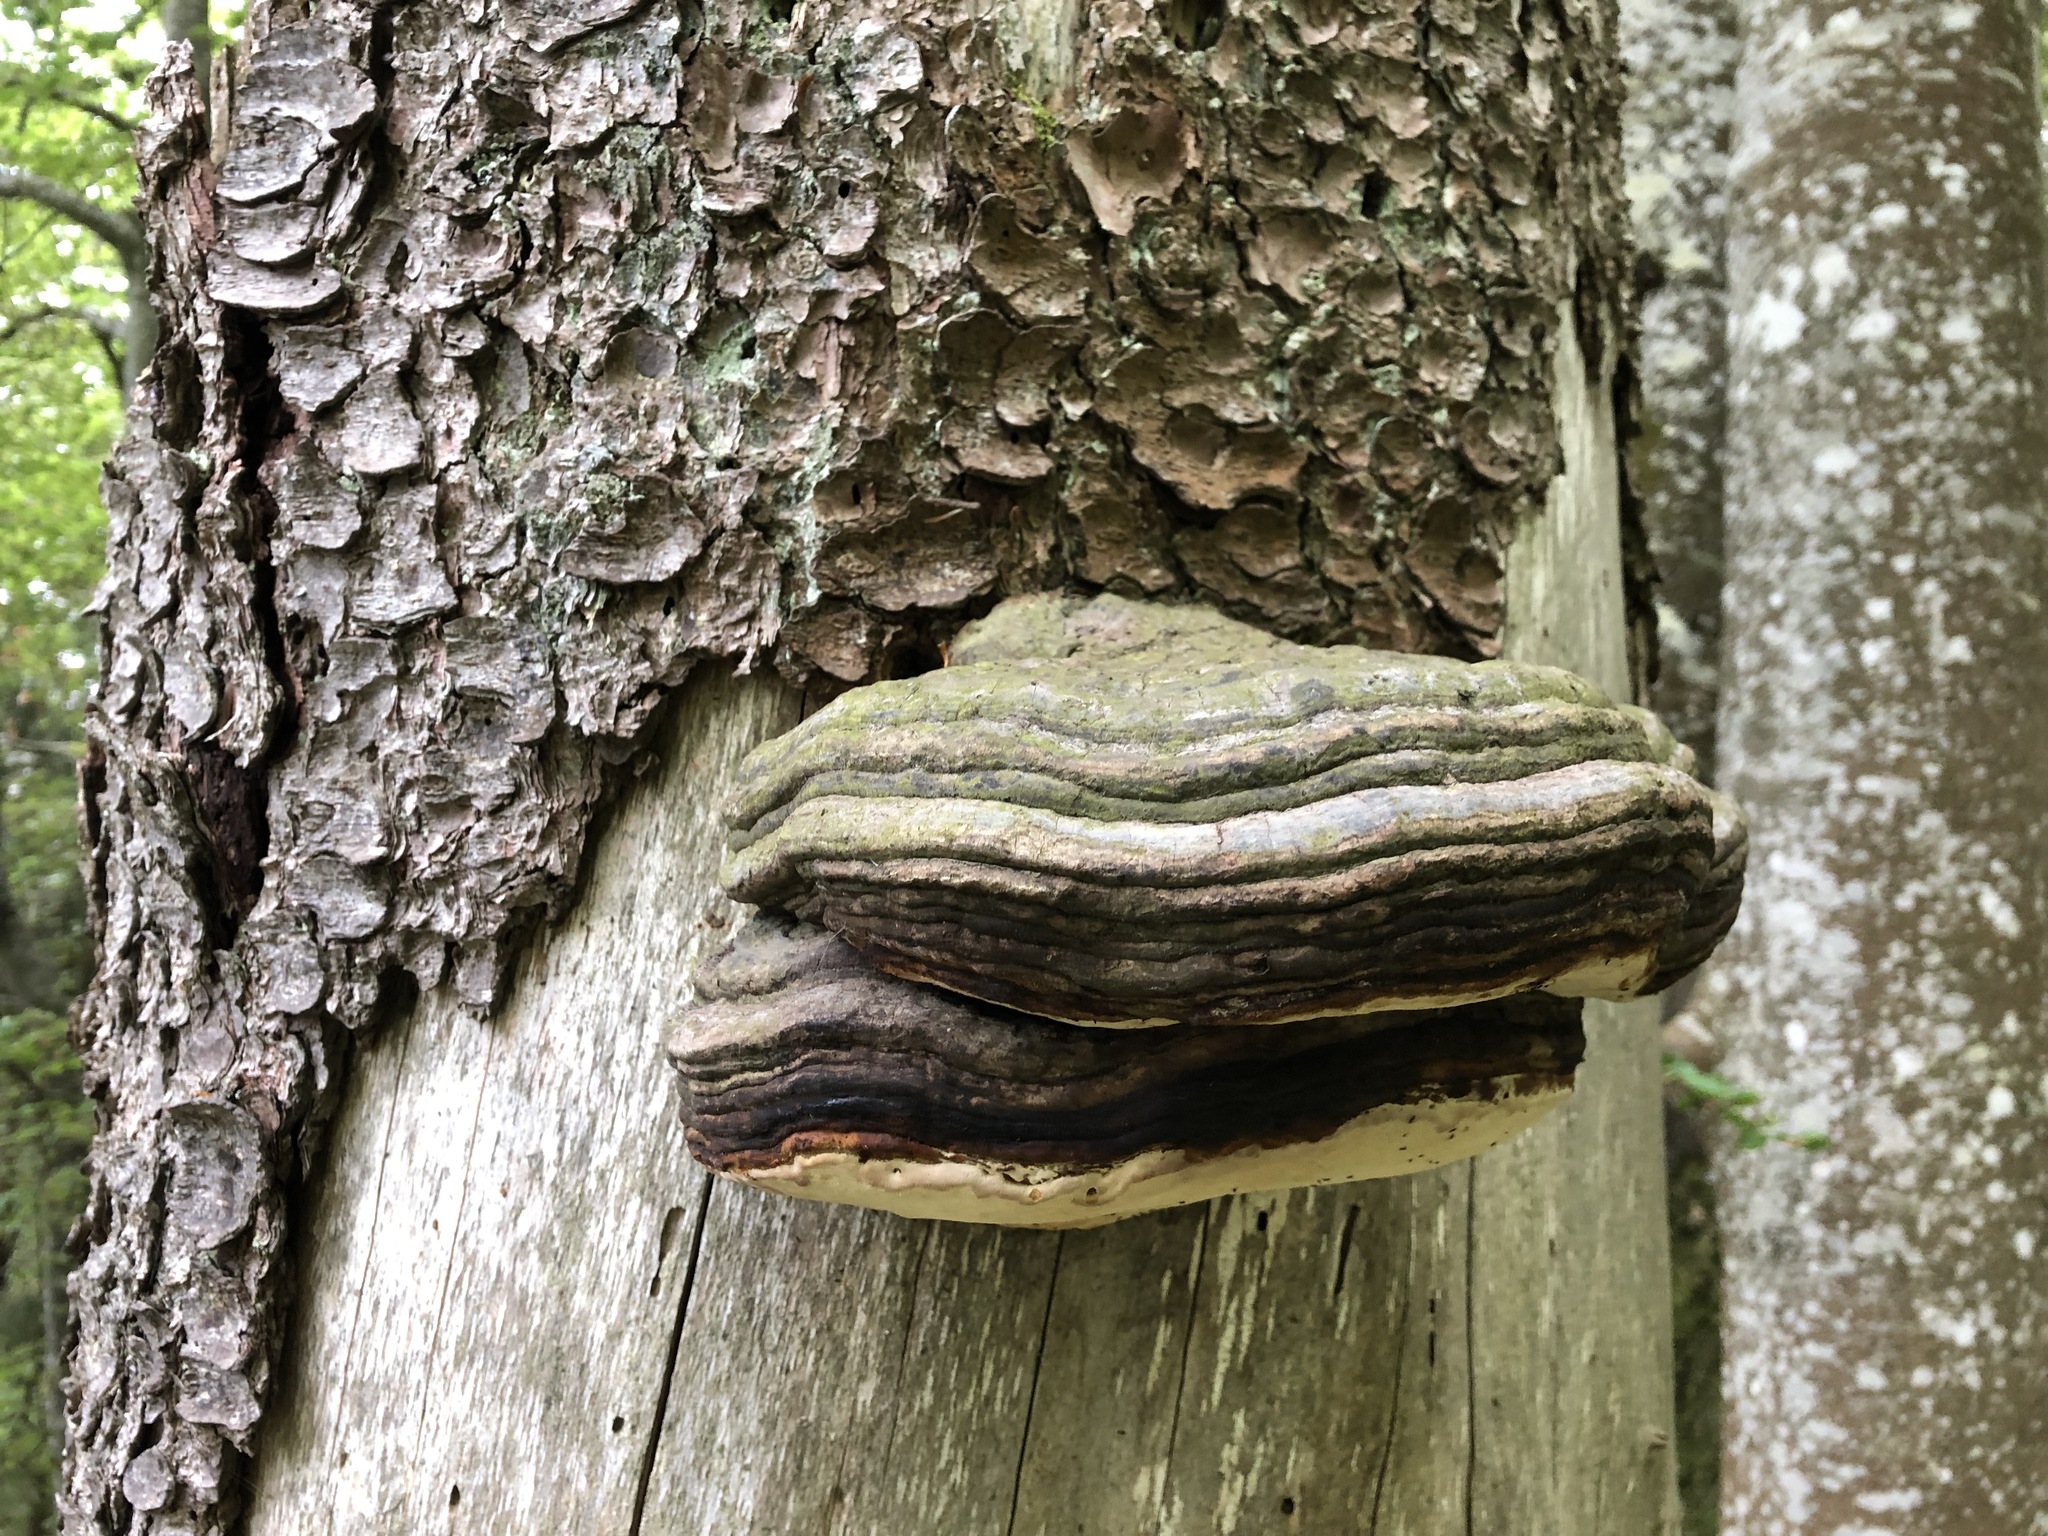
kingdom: Fungi
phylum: Basidiomycota
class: Agaricomycetes
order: Polyporales
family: Fomitopsidaceae
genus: Fomitopsis
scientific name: Fomitopsis pinicola
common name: Red-belted bracket
